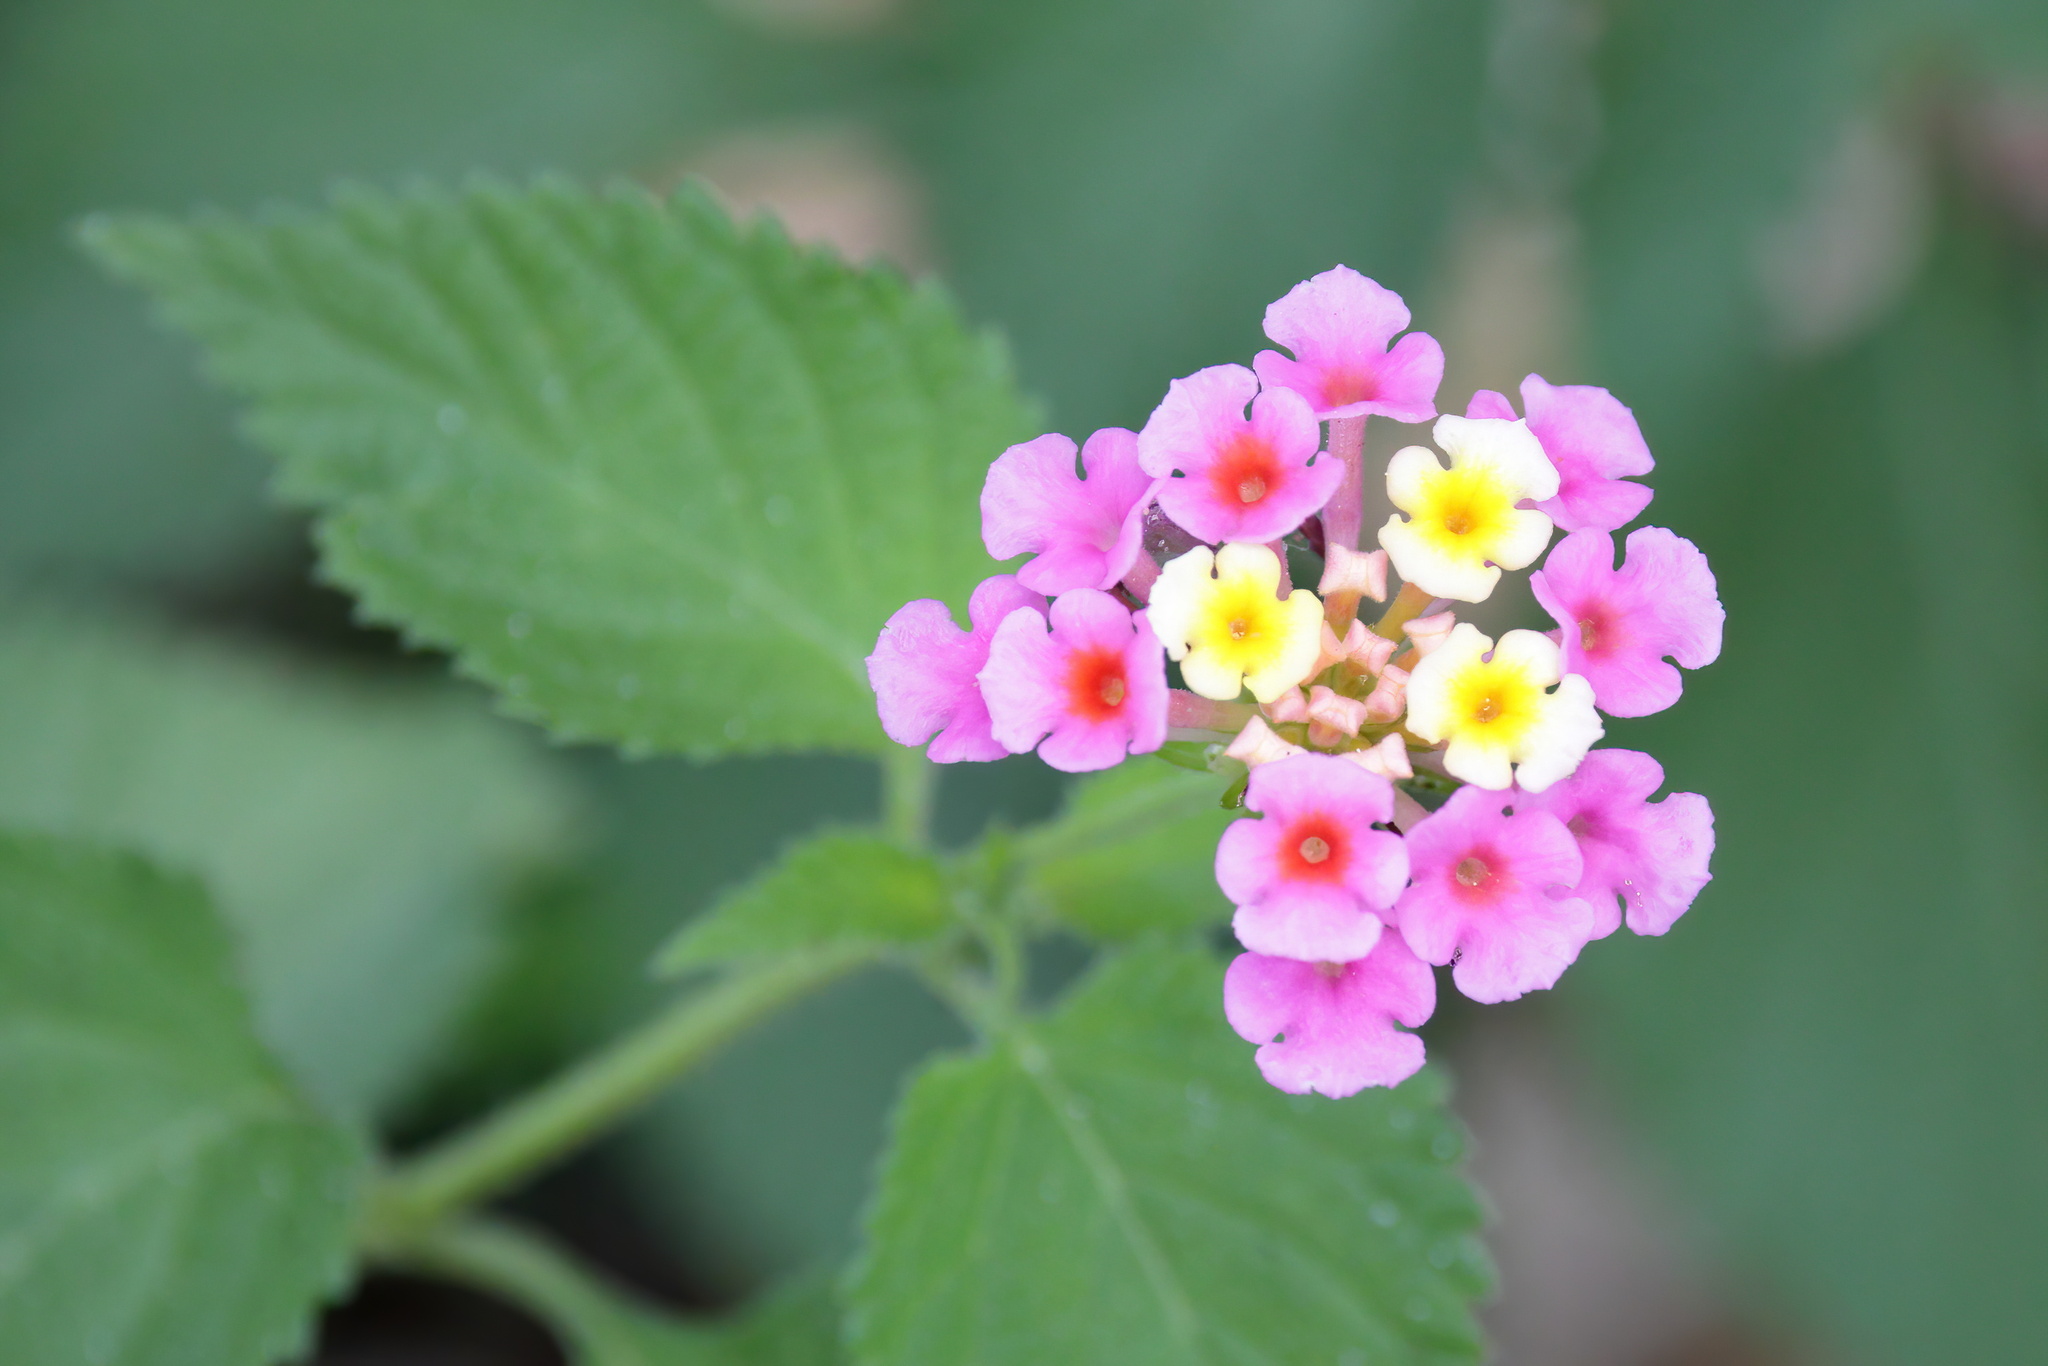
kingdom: Plantae
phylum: Tracheophyta
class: Magnoliopsida
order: Lamiales
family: Verbenaceae
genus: Lantana
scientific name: Lantana strigocamara
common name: Lantana
